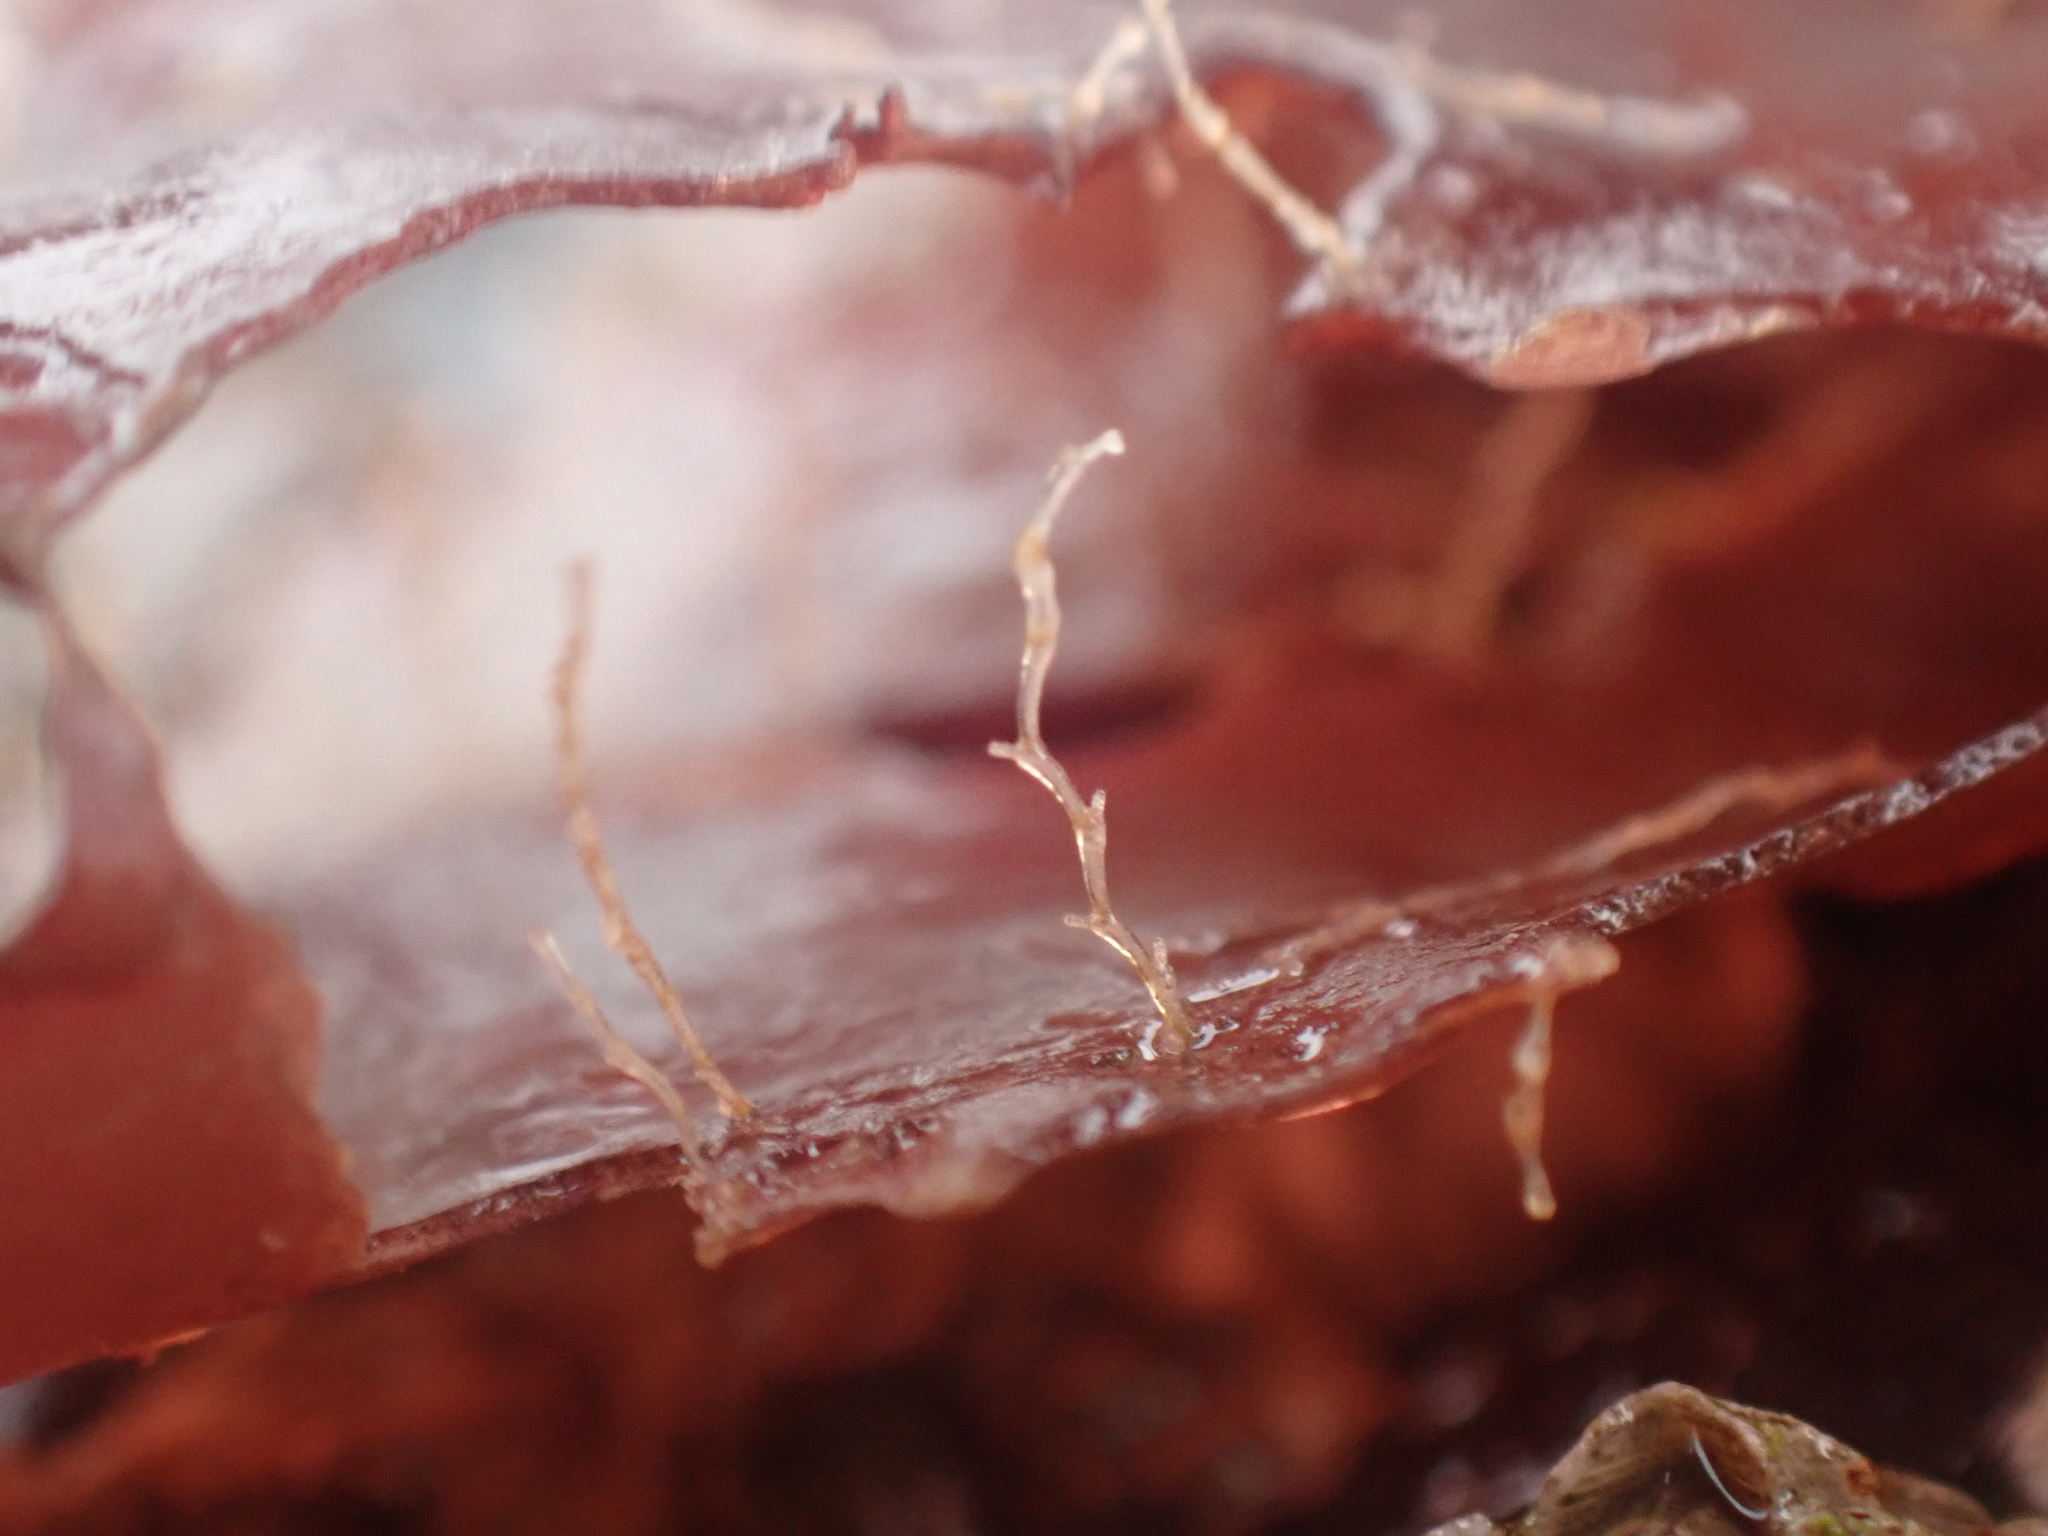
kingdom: Animalia
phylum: Cnidaria
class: Hydrozoa
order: Leptothecata
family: Campanulariidae
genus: Obelia
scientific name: Obelia geniculata
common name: Bell hydroid
